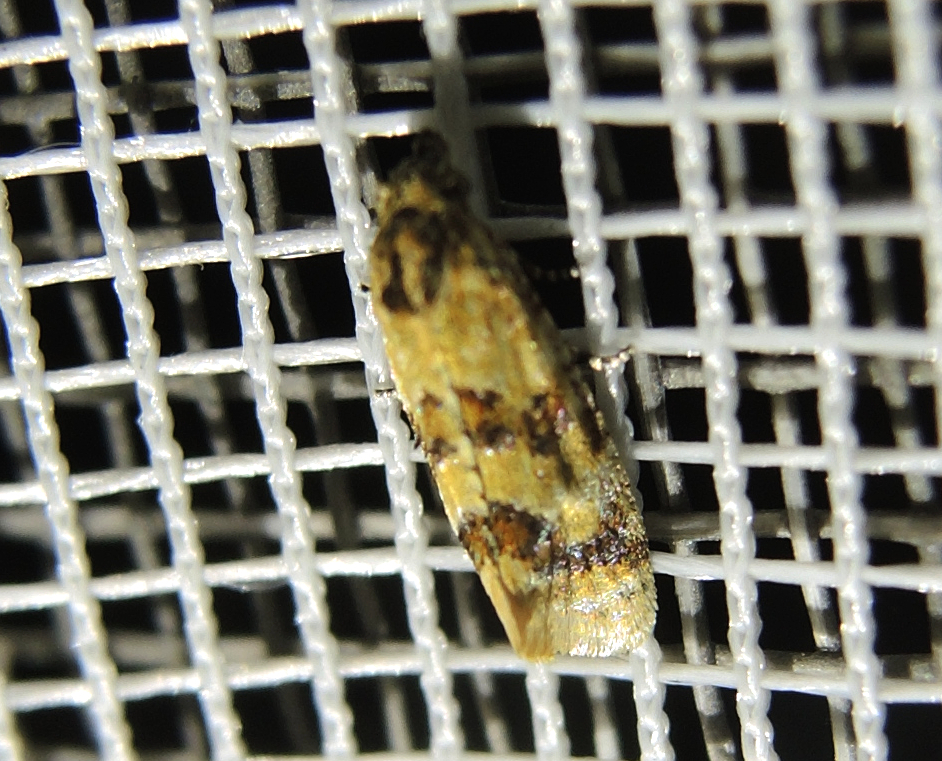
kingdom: Animalia
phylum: Arthropoda
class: Insecta
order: Lepidoptera
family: Tortricidae
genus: Aethes
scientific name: Aethes williana
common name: Silver carrot conch
